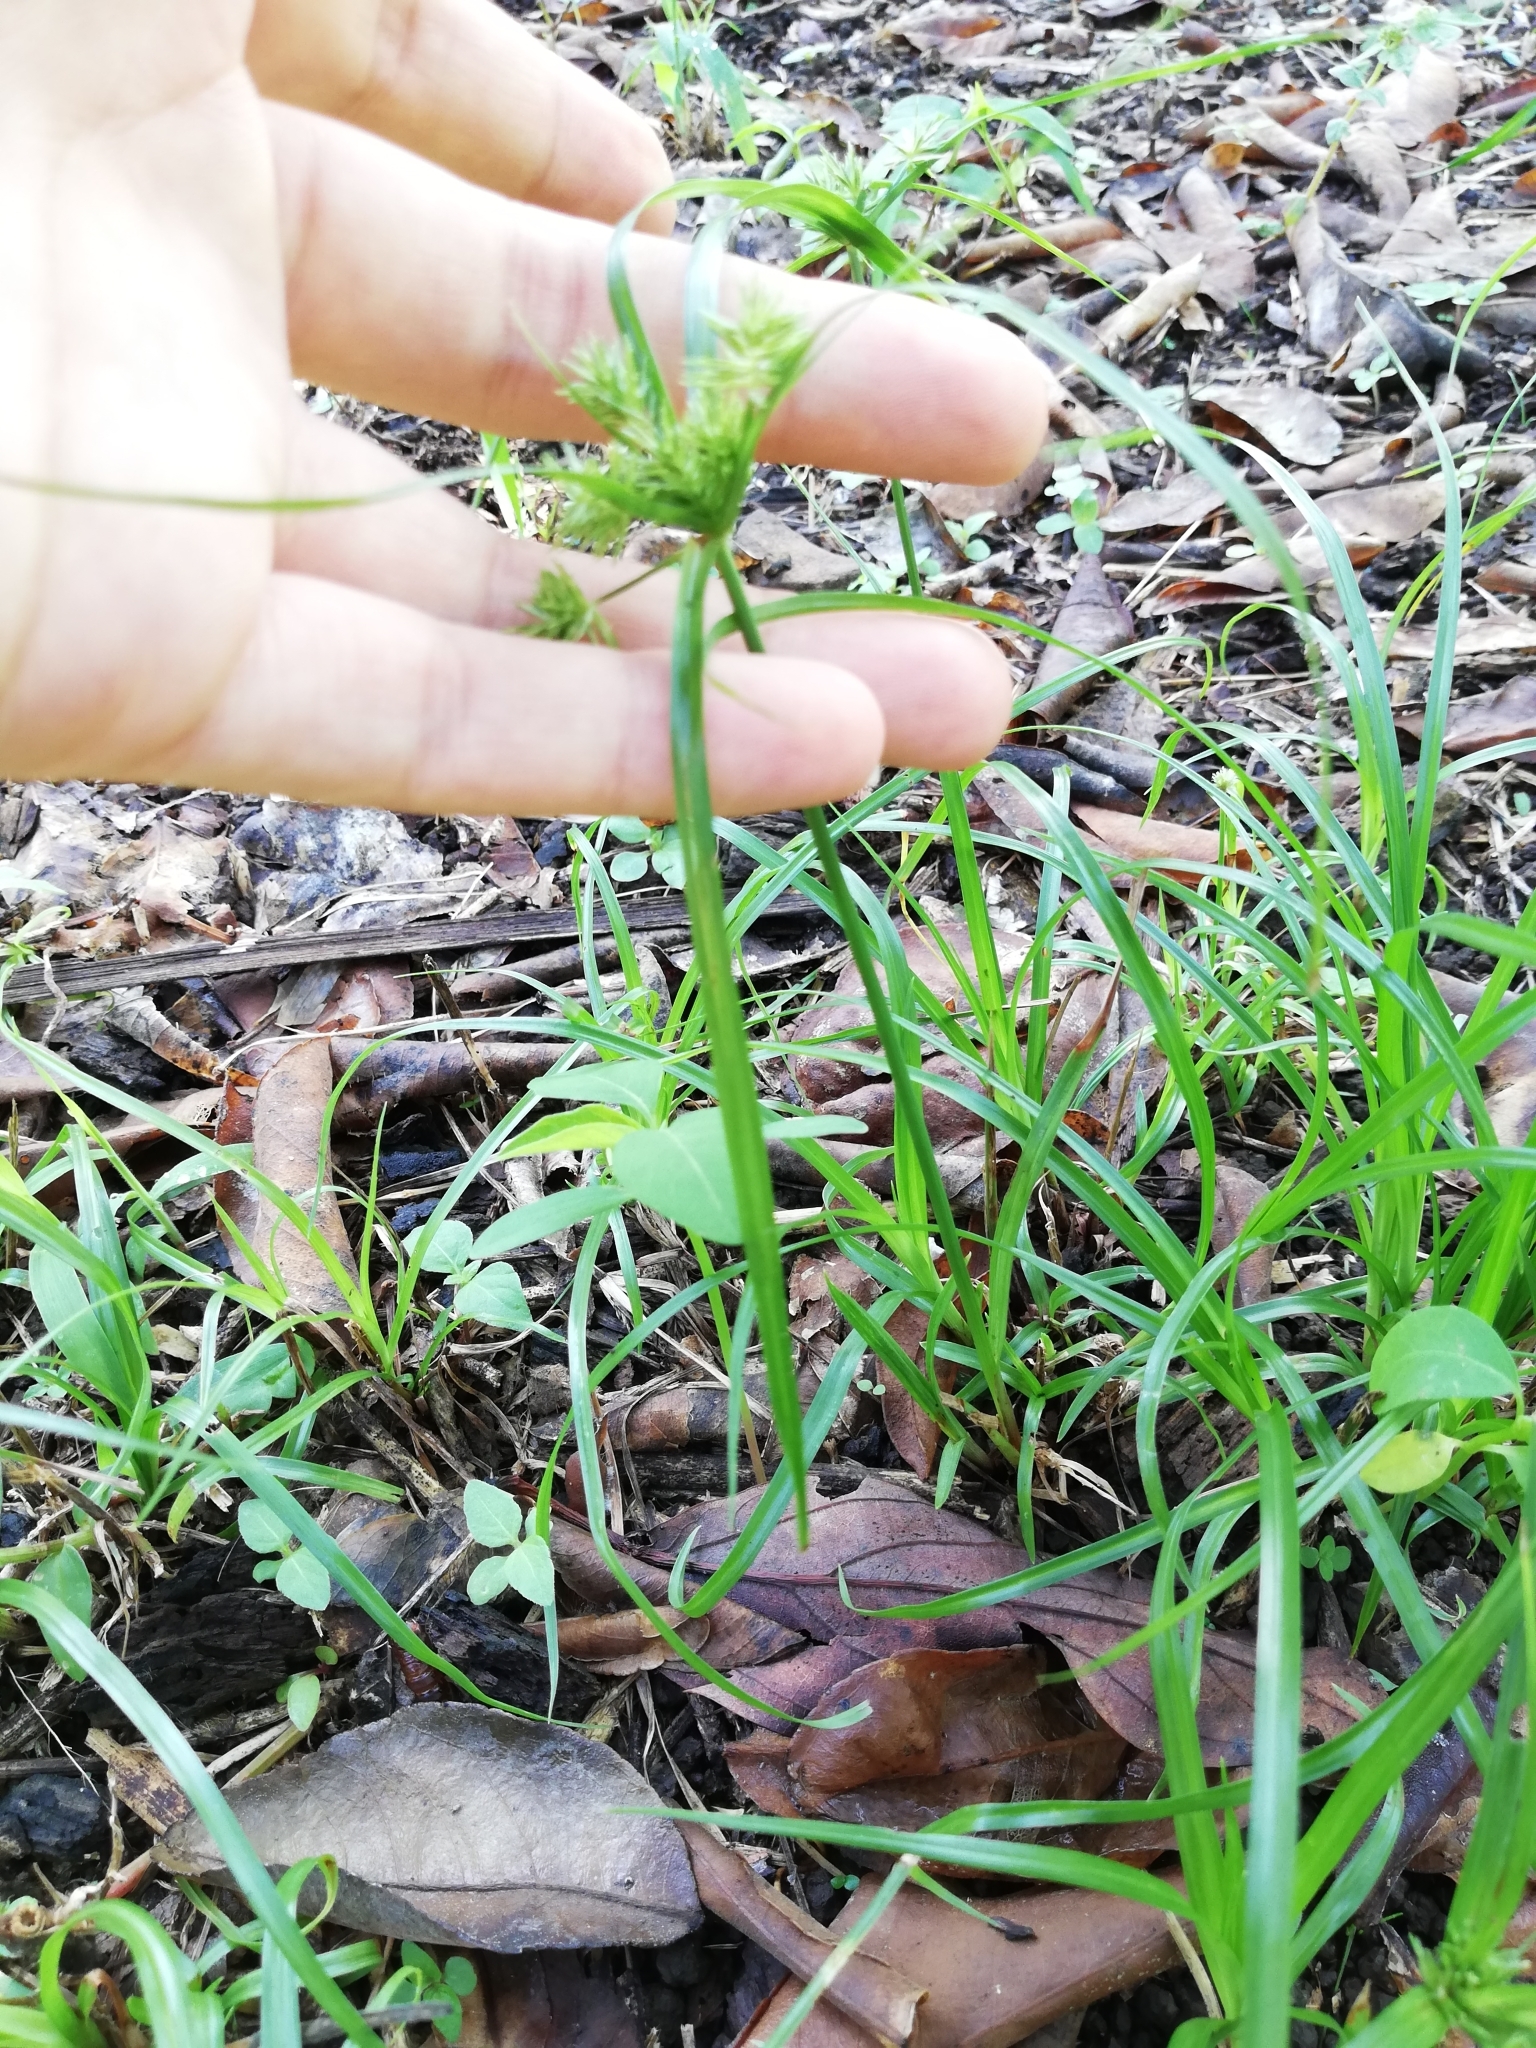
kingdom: Plantae
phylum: Tracheophyta
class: Liliopsida
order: Poales
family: Cyperaceae
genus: Cyperus
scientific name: Cyperus tenuis
